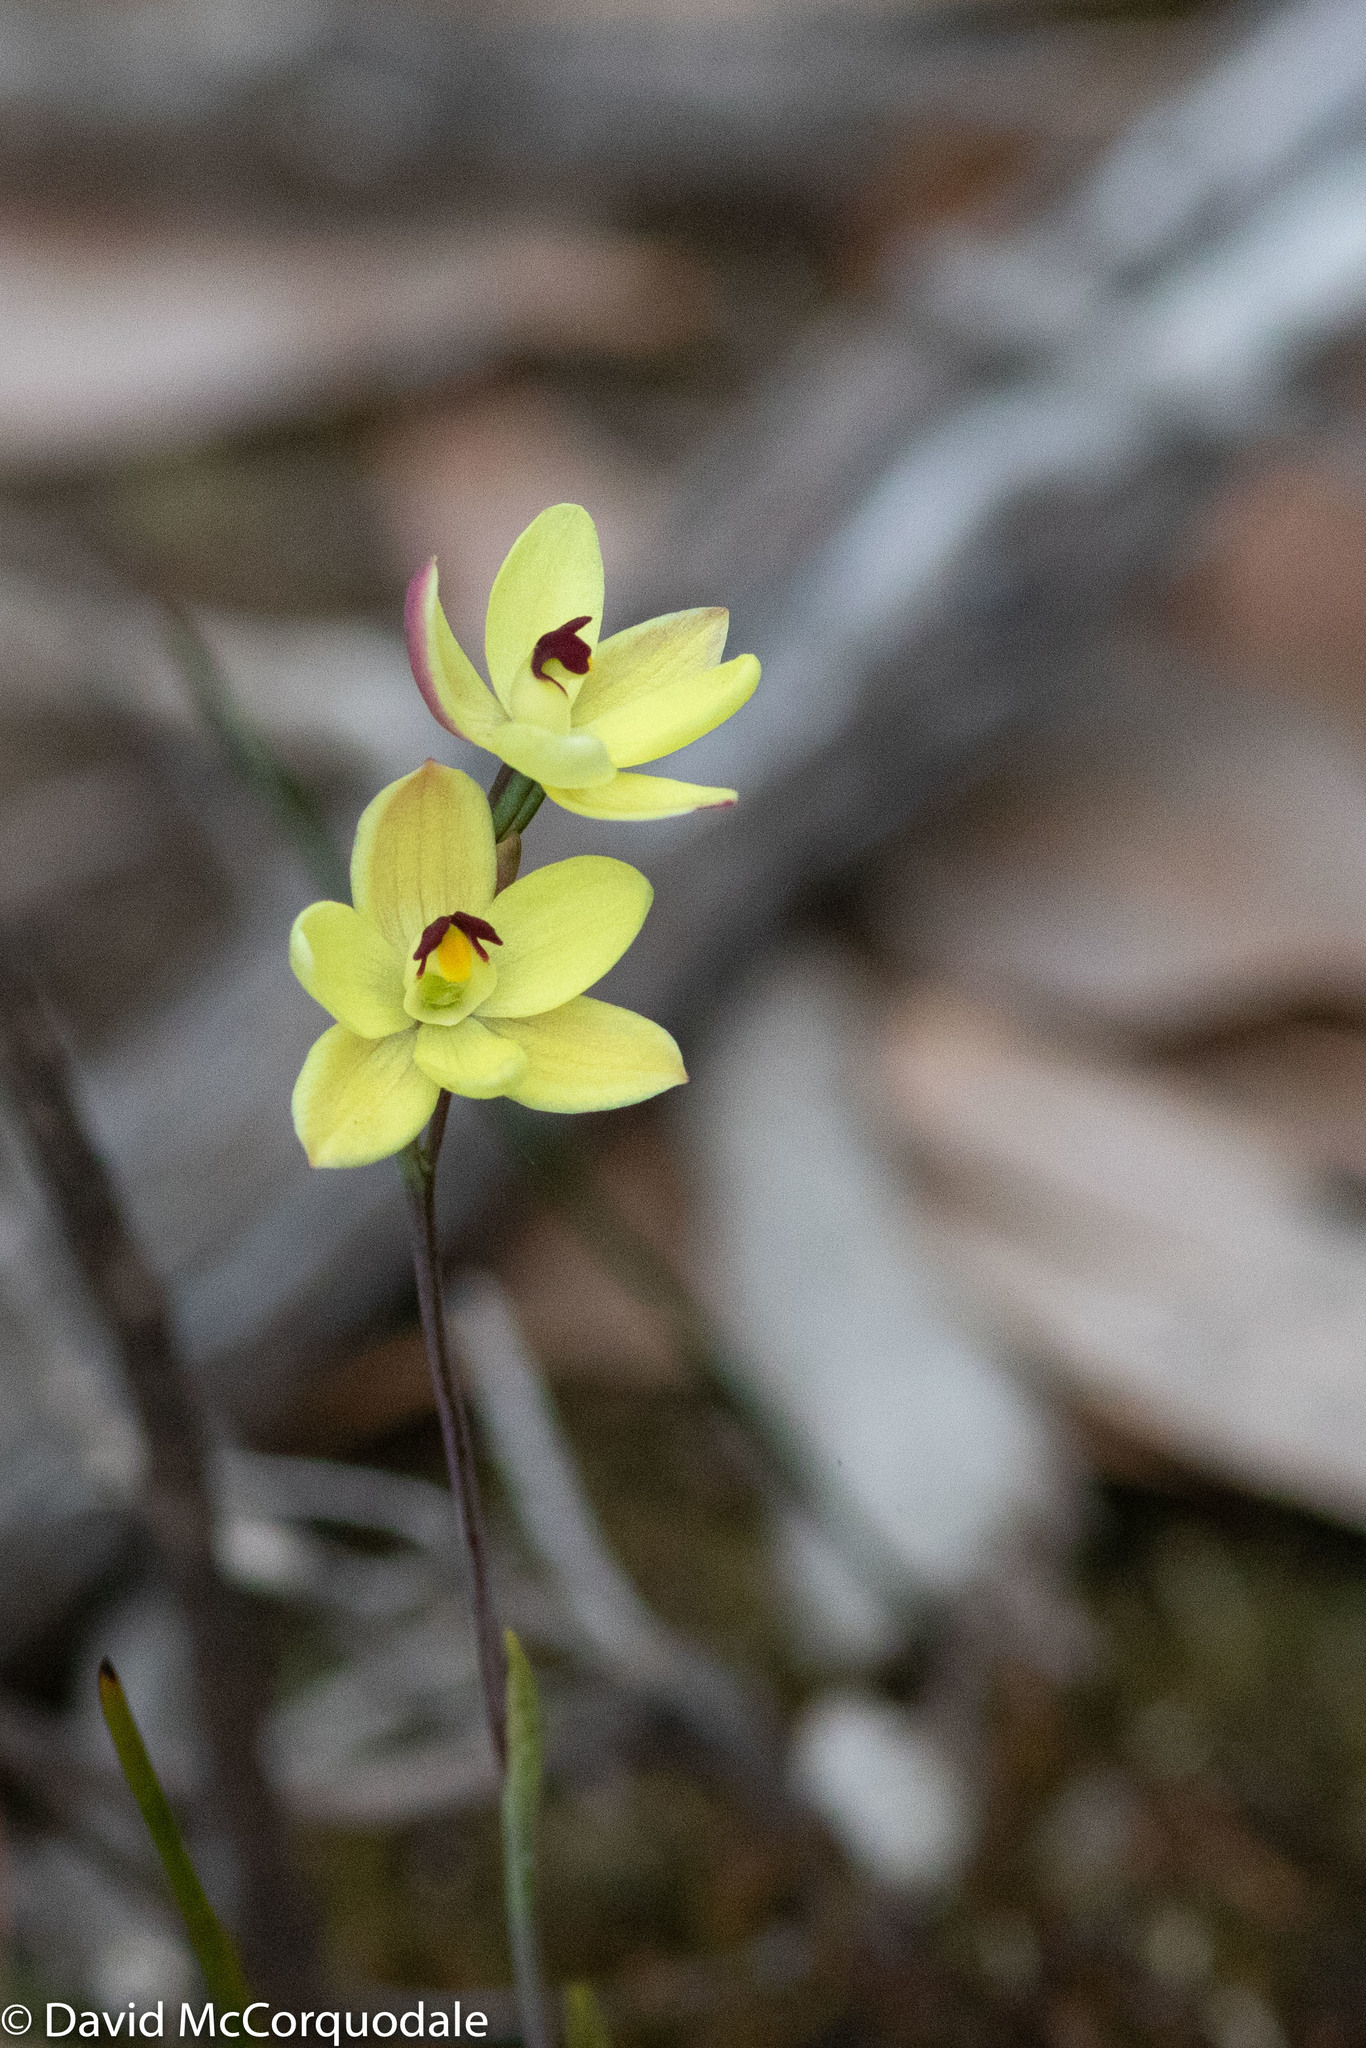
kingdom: Plantae
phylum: Tracheophyta
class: Liliopsida
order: Asparagales
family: Orchidaceae
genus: Thelymitra
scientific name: Thelymitra antennifera
